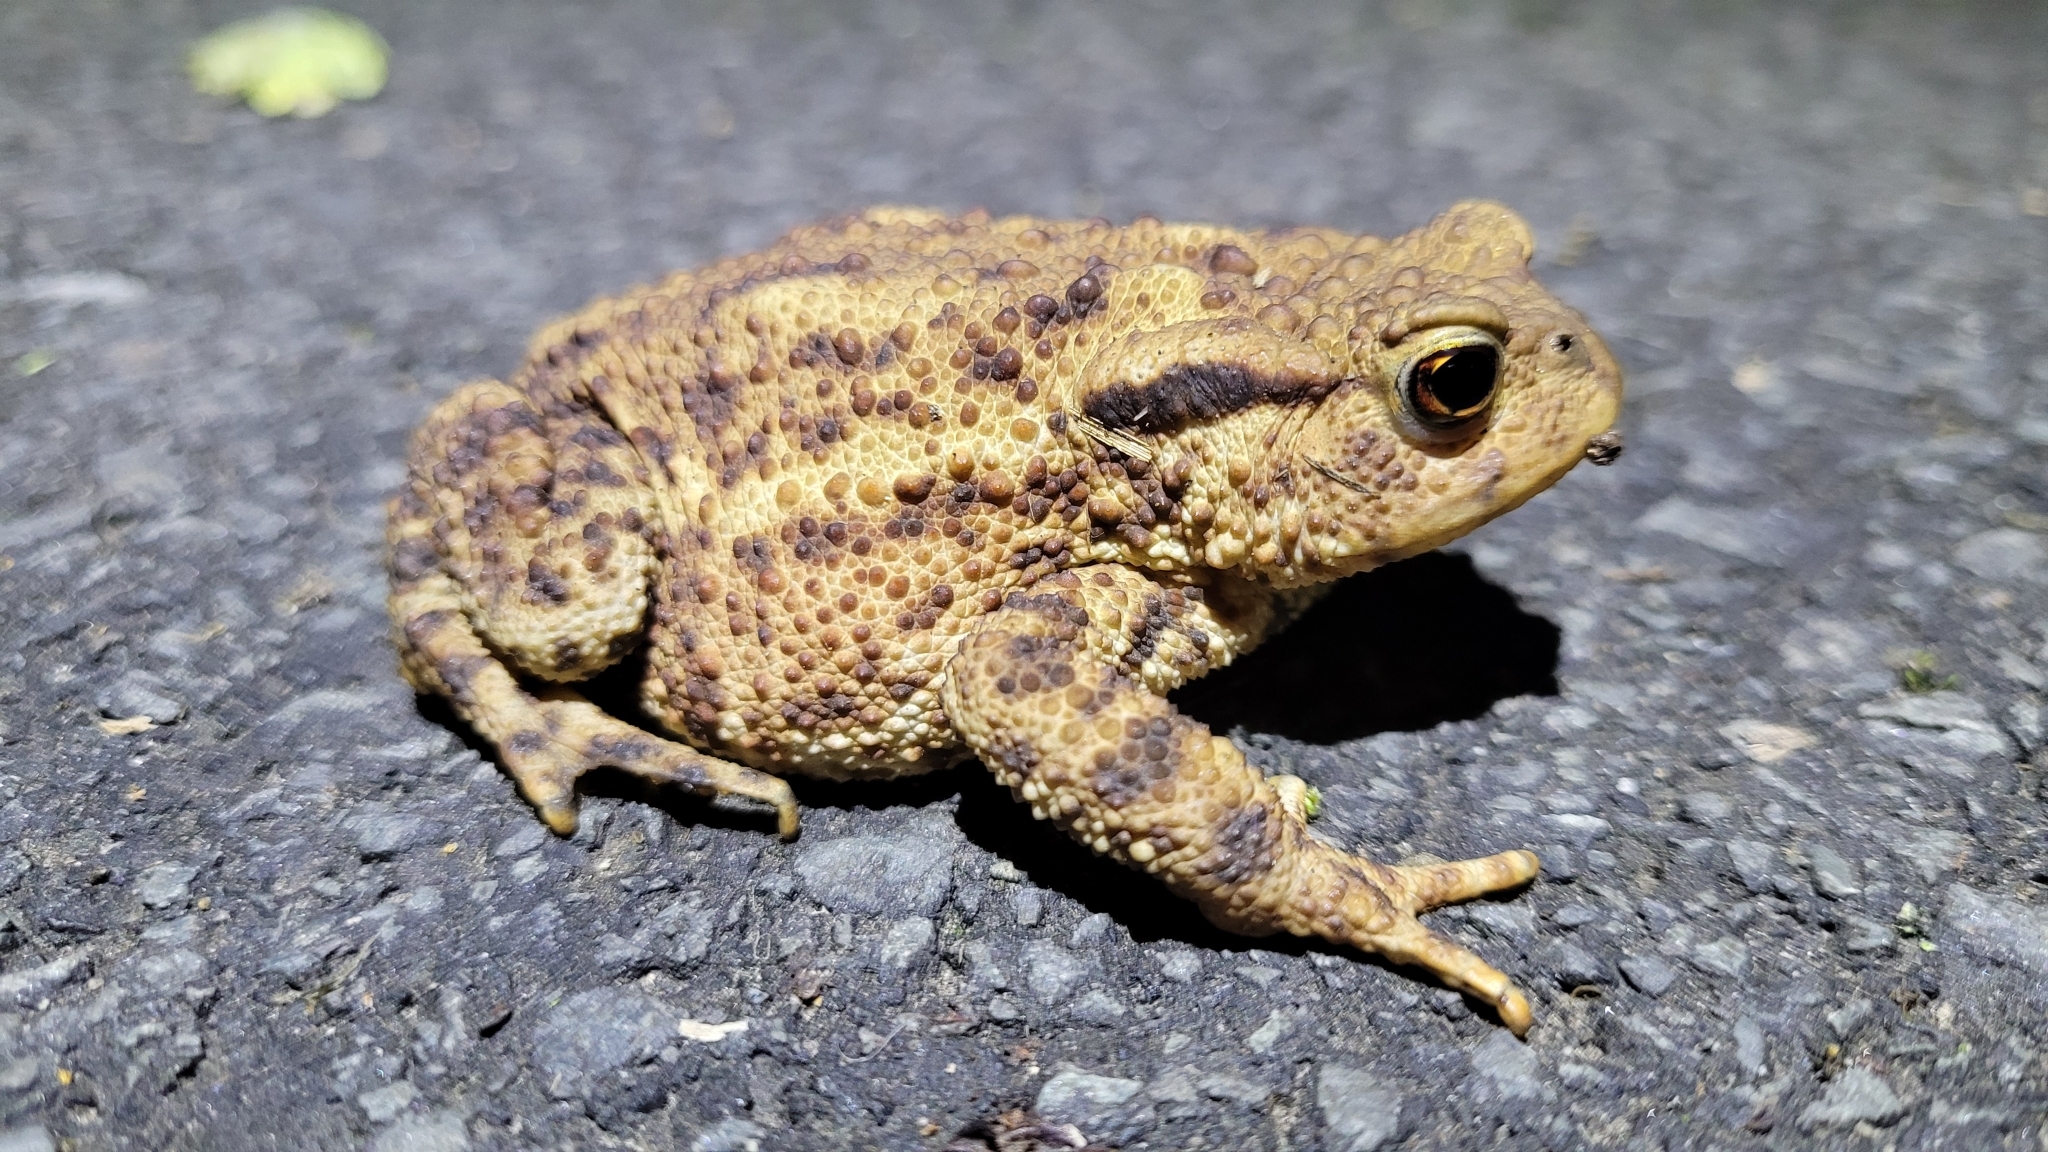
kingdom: Animalia
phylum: Chordata
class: Amphibia
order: Anura
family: Bufonidae
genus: Bufo
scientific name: Bufo bufo
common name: Common toad
